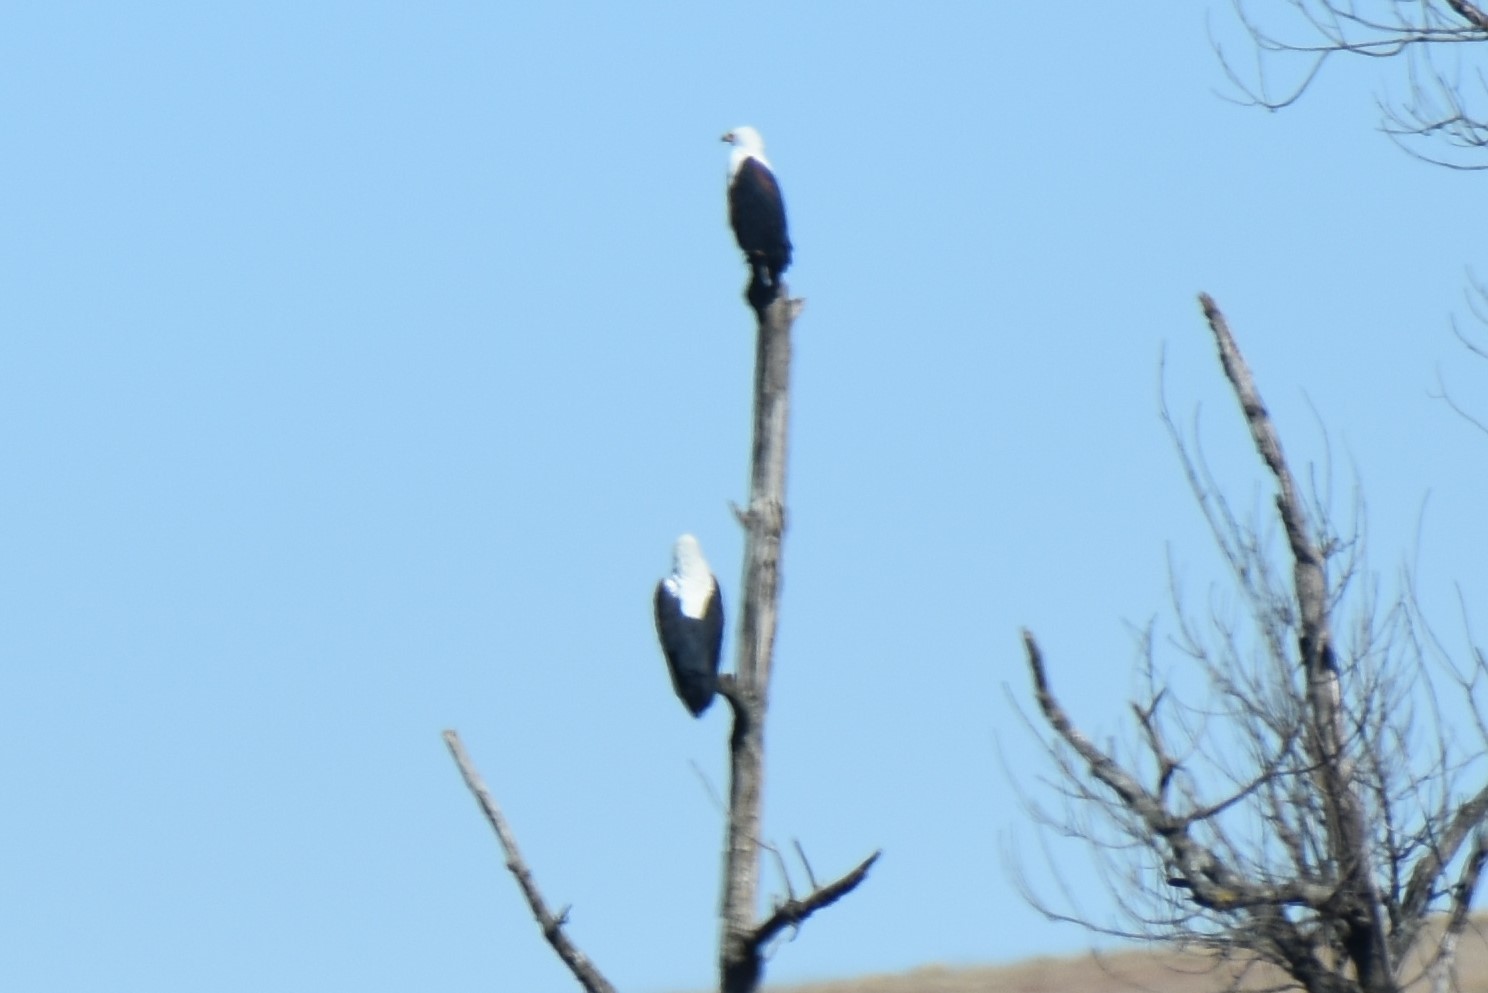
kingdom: Animalia
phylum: Chordata
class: Aves
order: Accipitriformes
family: Accipitridae
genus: Haliaeetus
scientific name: Haliaeetus vocifer
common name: African fish eagle
